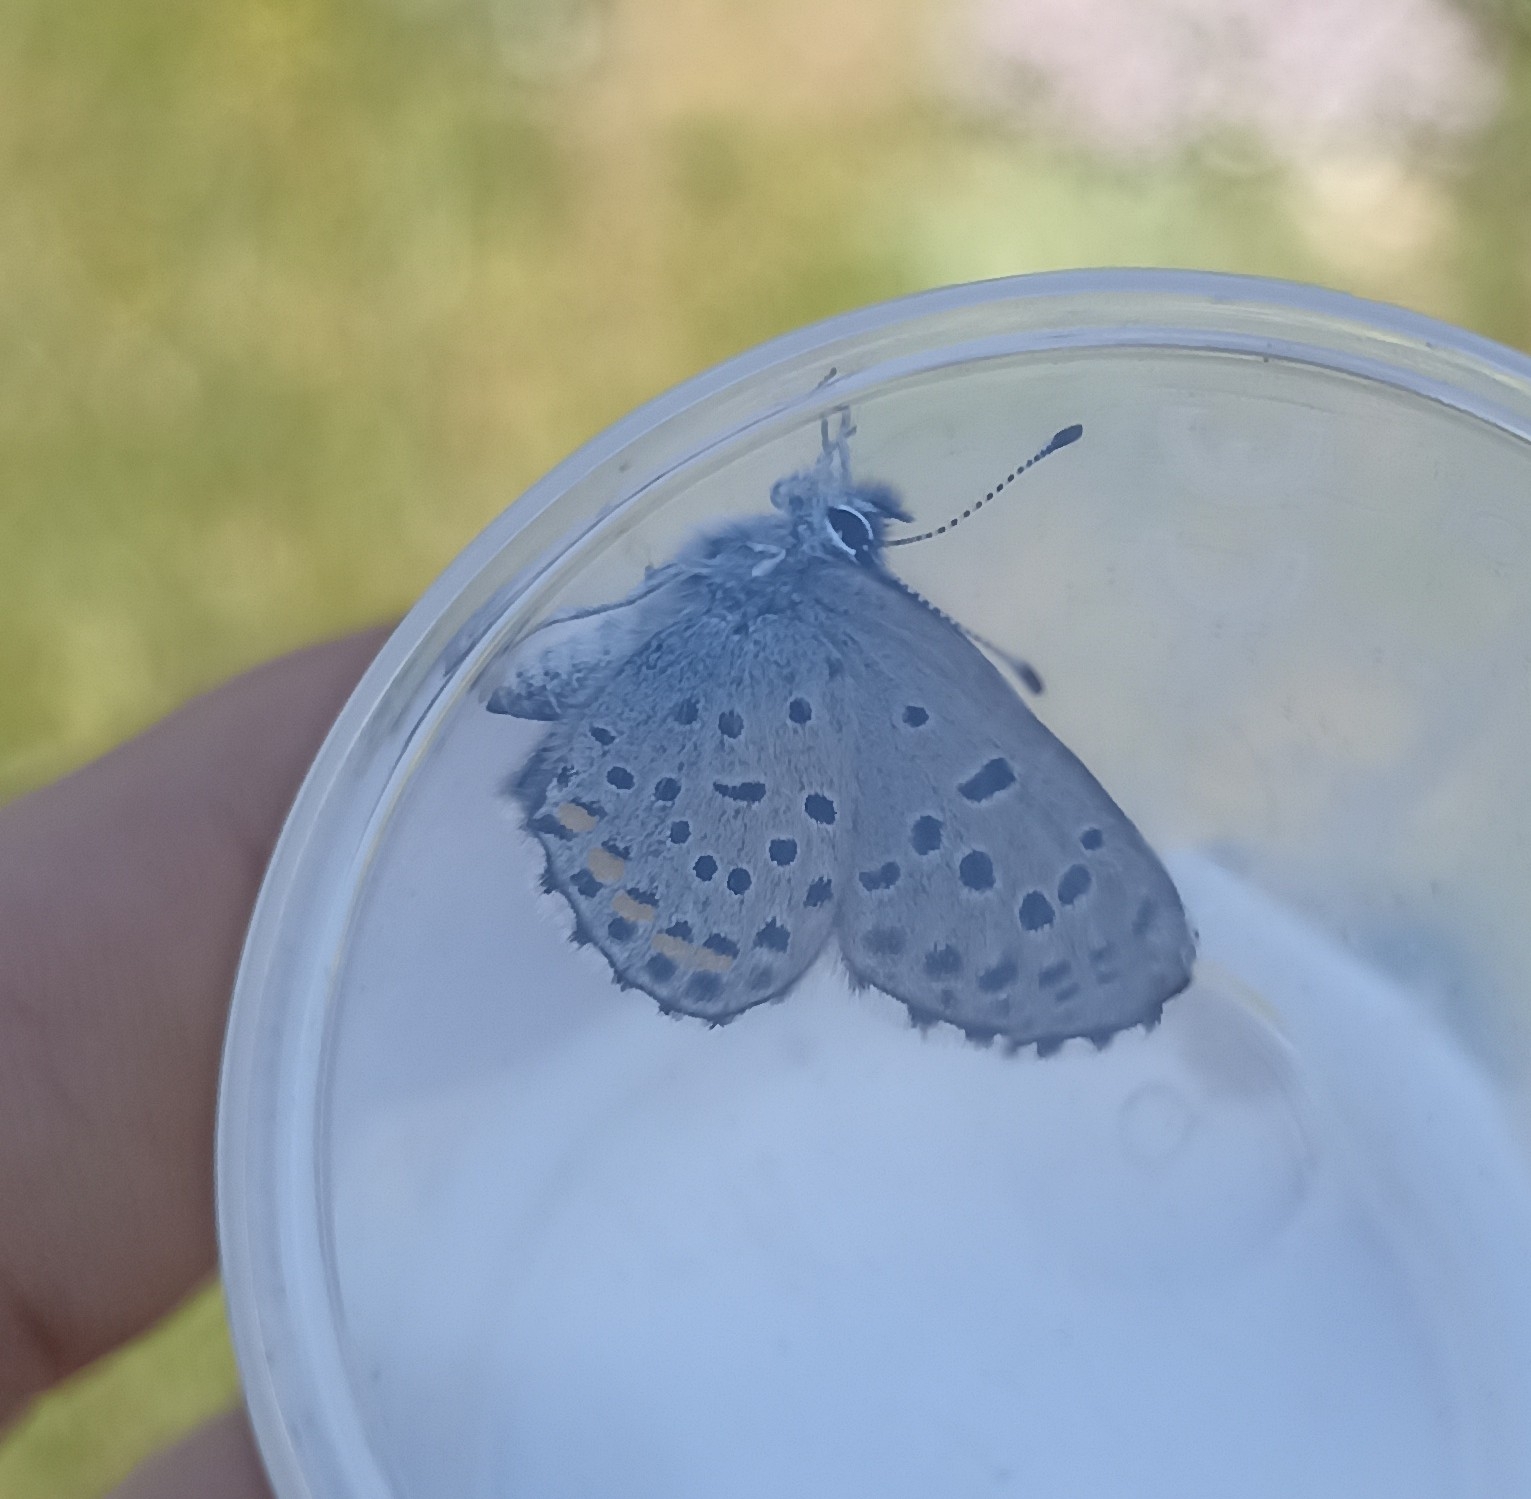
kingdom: Animalia
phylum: Arthropoda
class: Insecta
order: Lepidoptera
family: Lycaenidae
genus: Pseudophilotes
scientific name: Pseudophilotes baton
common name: Baton blue
